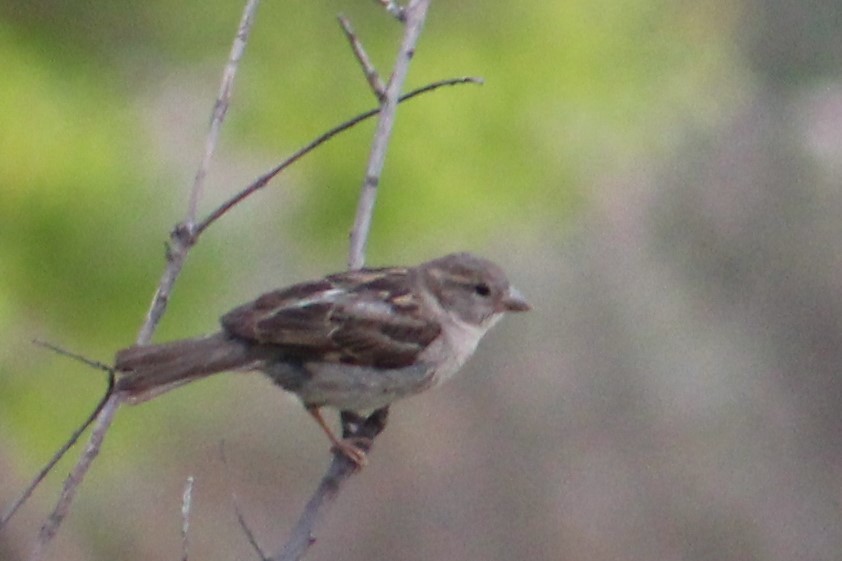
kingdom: Animalia
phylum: Chordata
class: Aves
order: Passeriformes
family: Passeridae
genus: Passer
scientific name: Passer domesticus
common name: House sparrow
